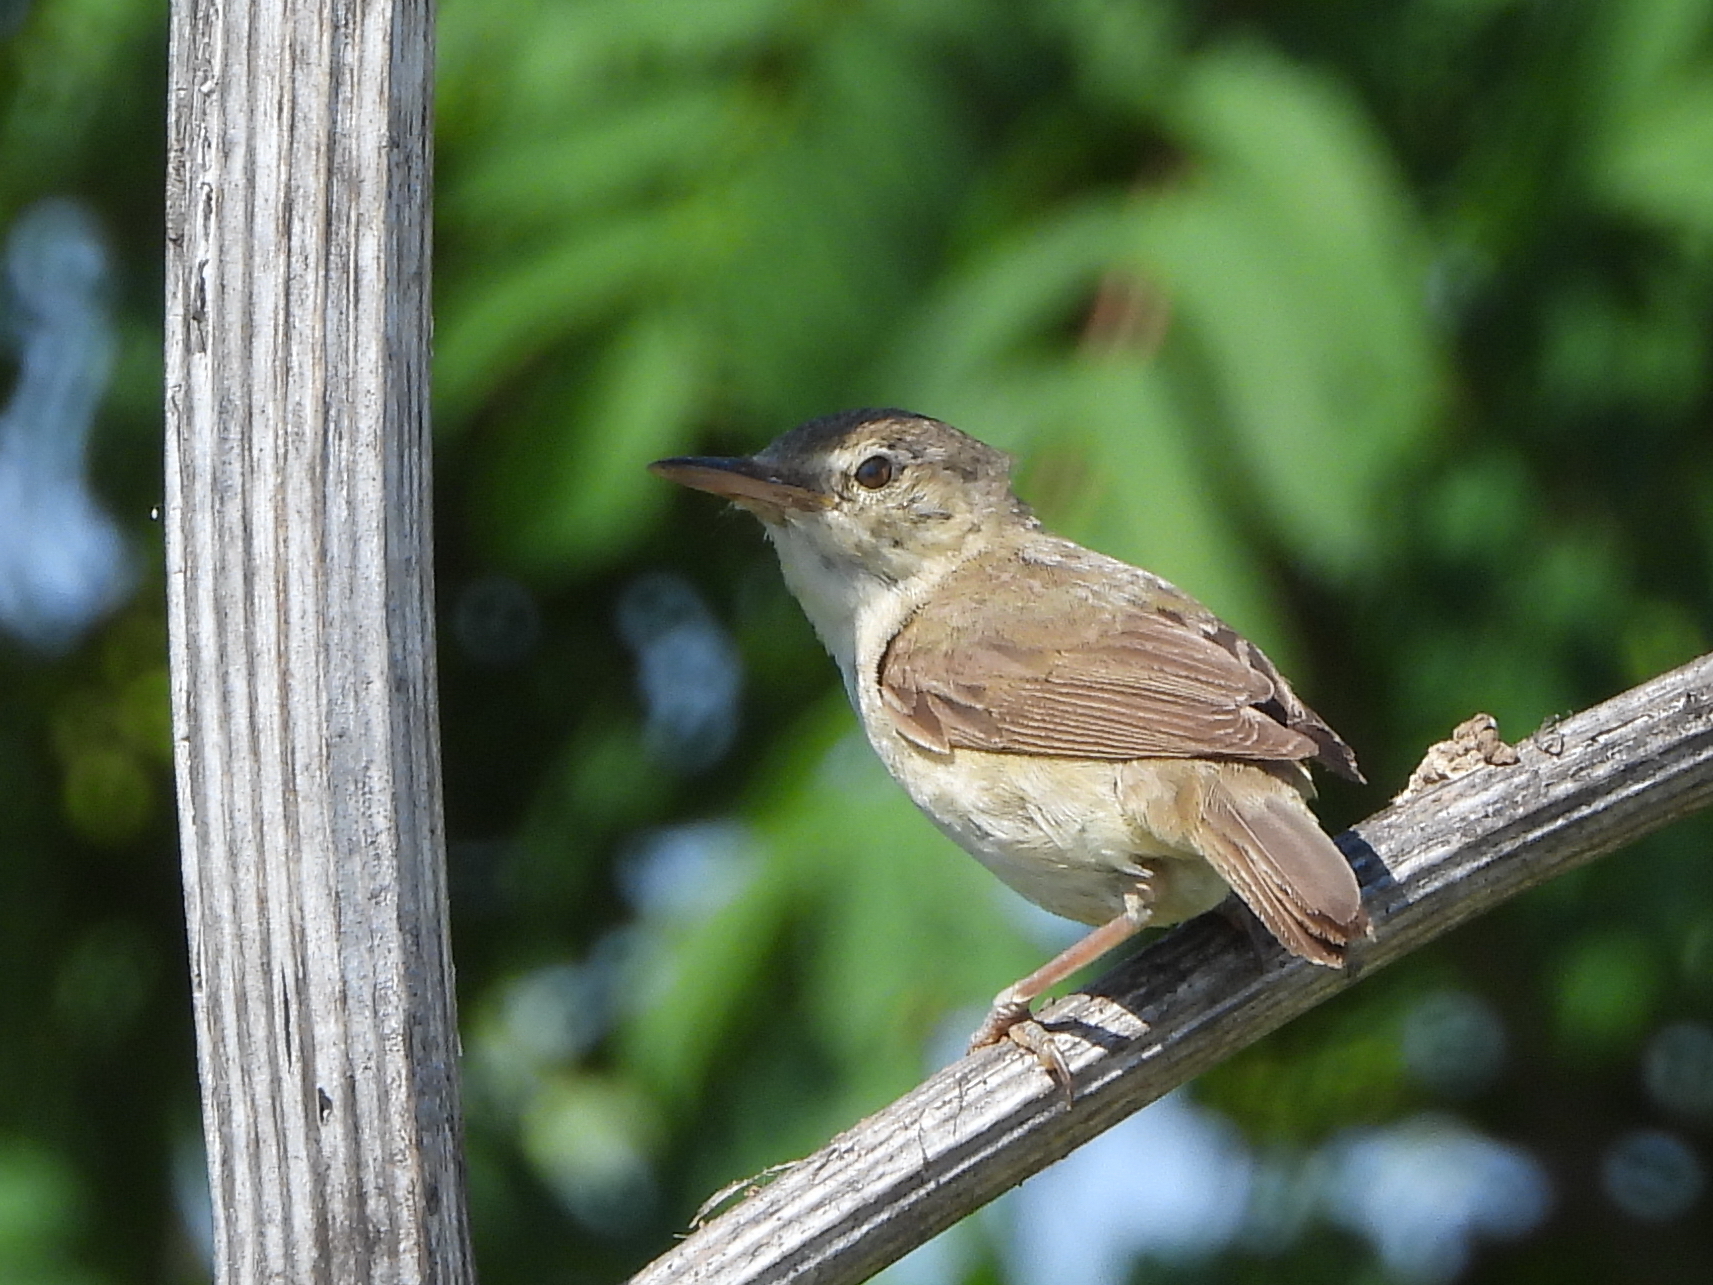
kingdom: Animalia
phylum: Chordata
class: Aves
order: Passeriformes
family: Acrocephalidae
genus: Acrocephalus
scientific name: Acrocephalus dumetorum
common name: Blyth's reed warbler
